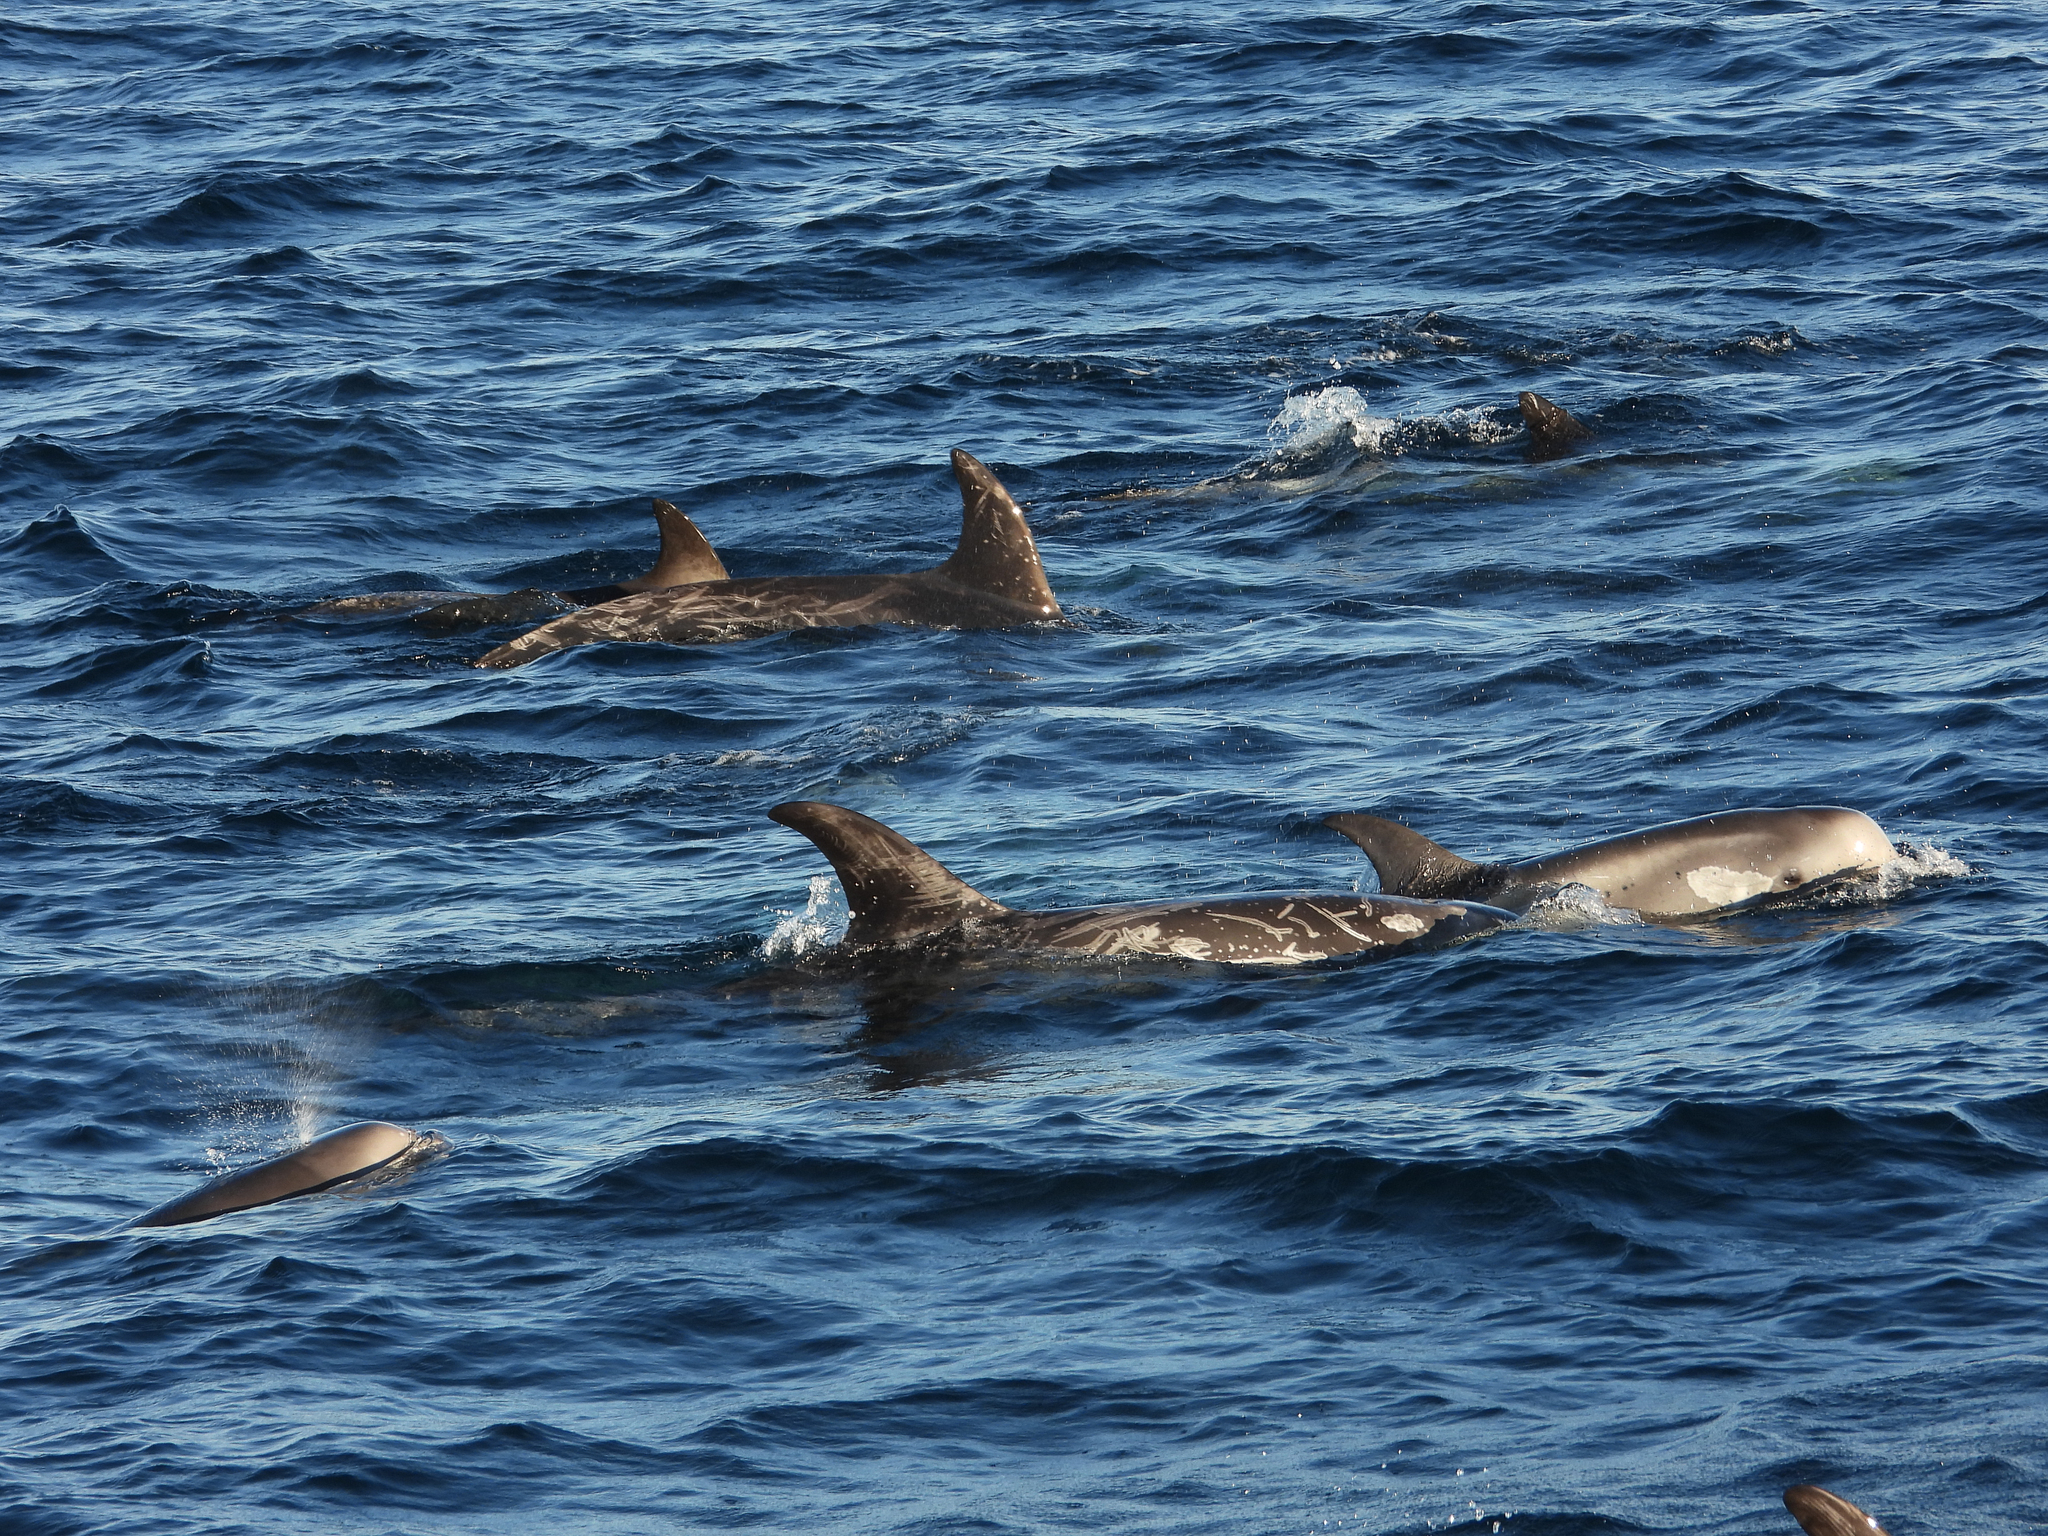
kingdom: Animalia
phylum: Chordata
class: Mammalia
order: Cetacea
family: Delphinidae
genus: Grampus
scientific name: Grampus griseus
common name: Risso's dolphin
